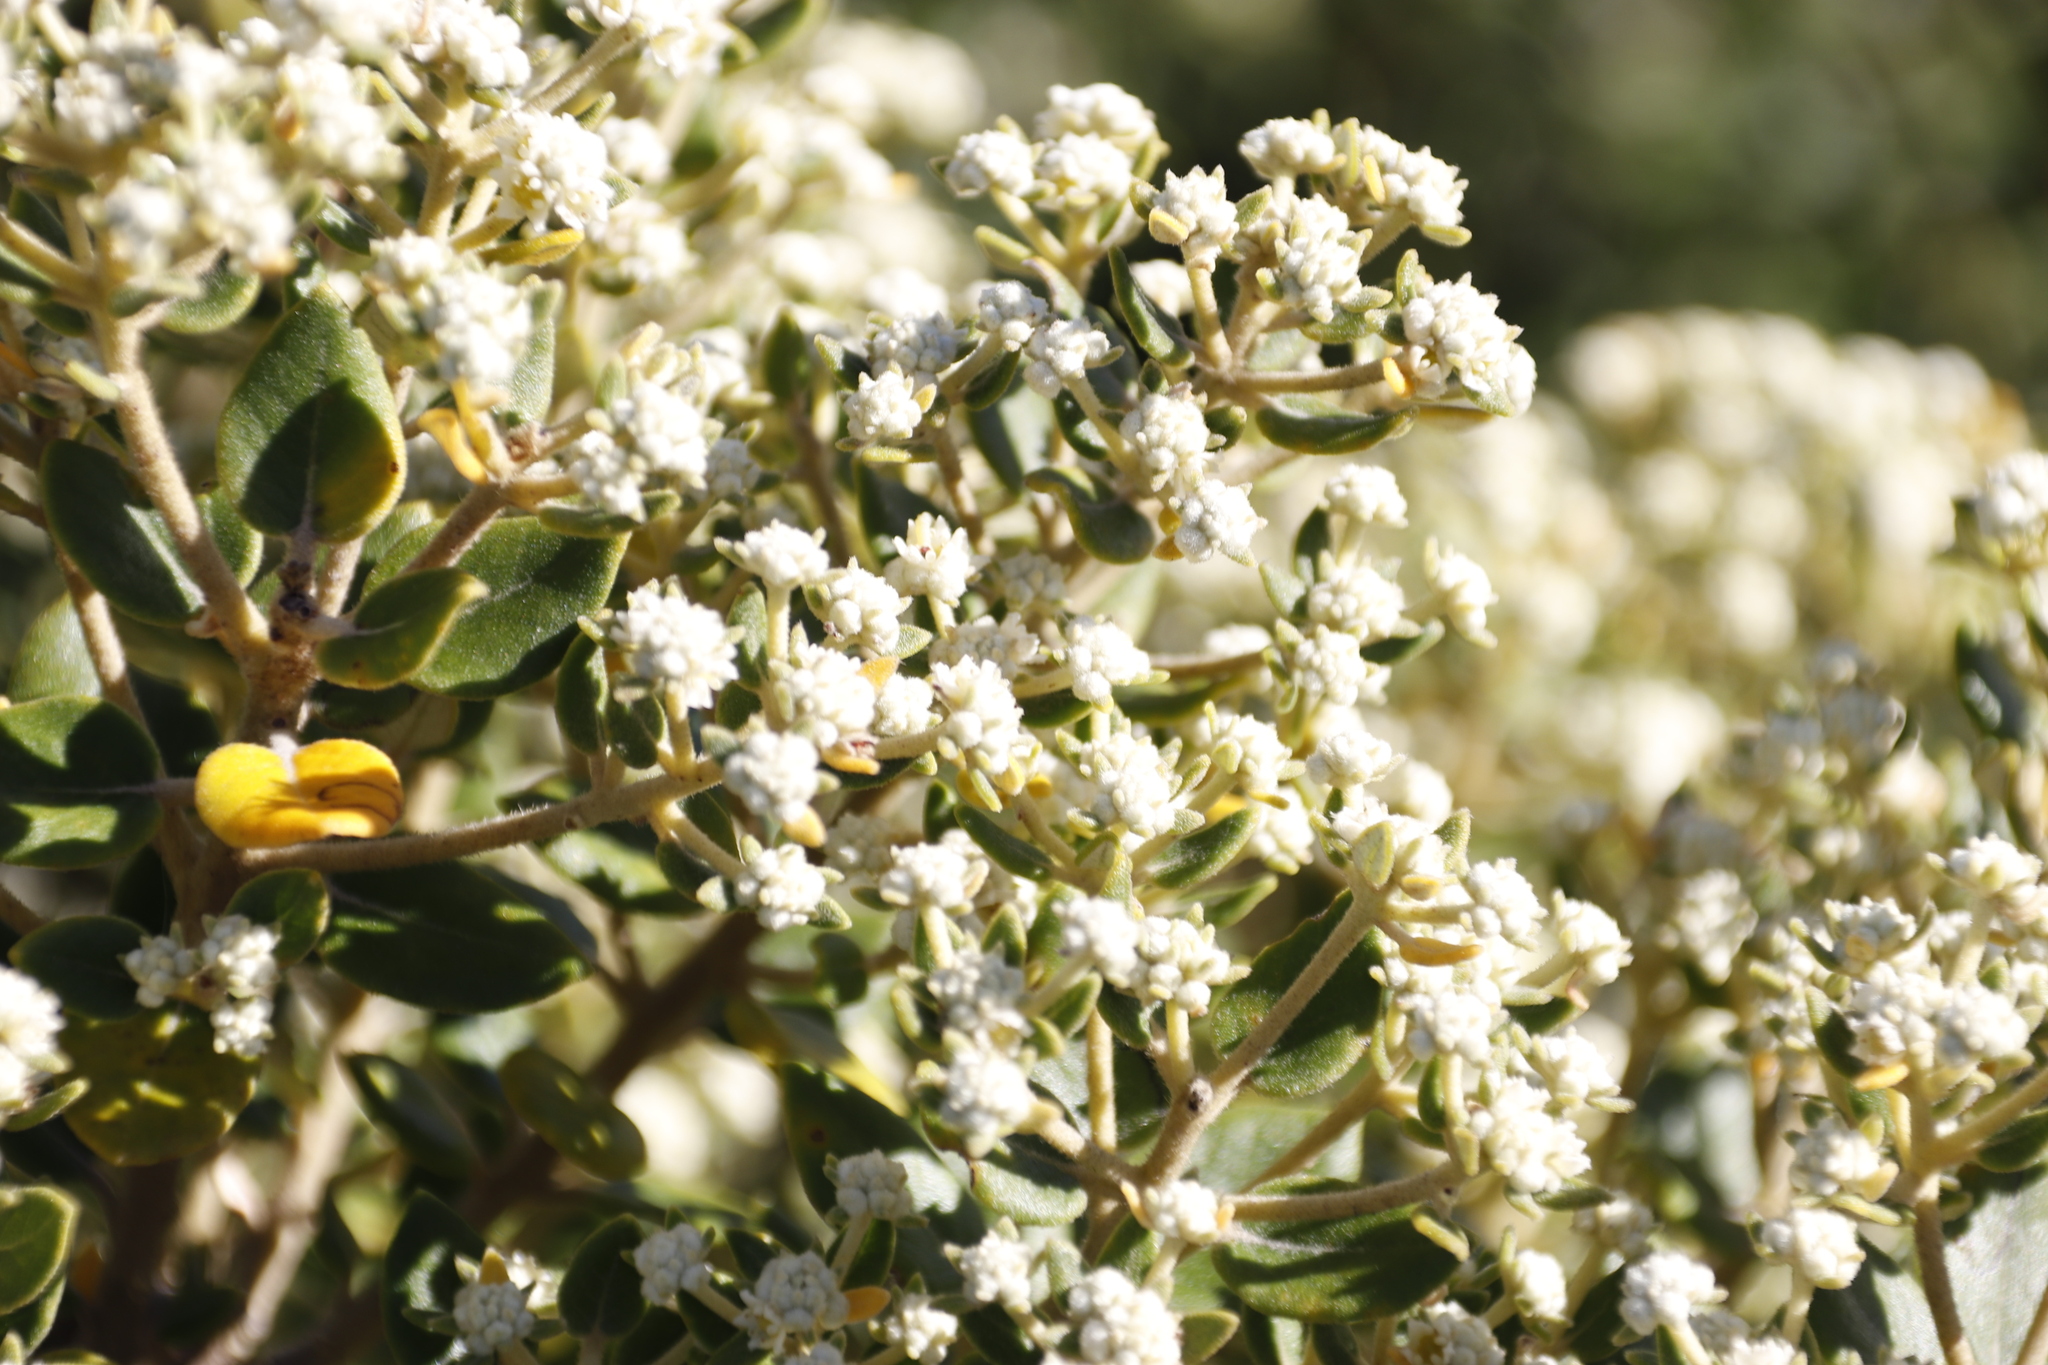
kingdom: Plantae
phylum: Tracheophyta
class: Magnoliopsida
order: Rosales
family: Rhamnaceae
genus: Phylica
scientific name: Phylica buxifolia
